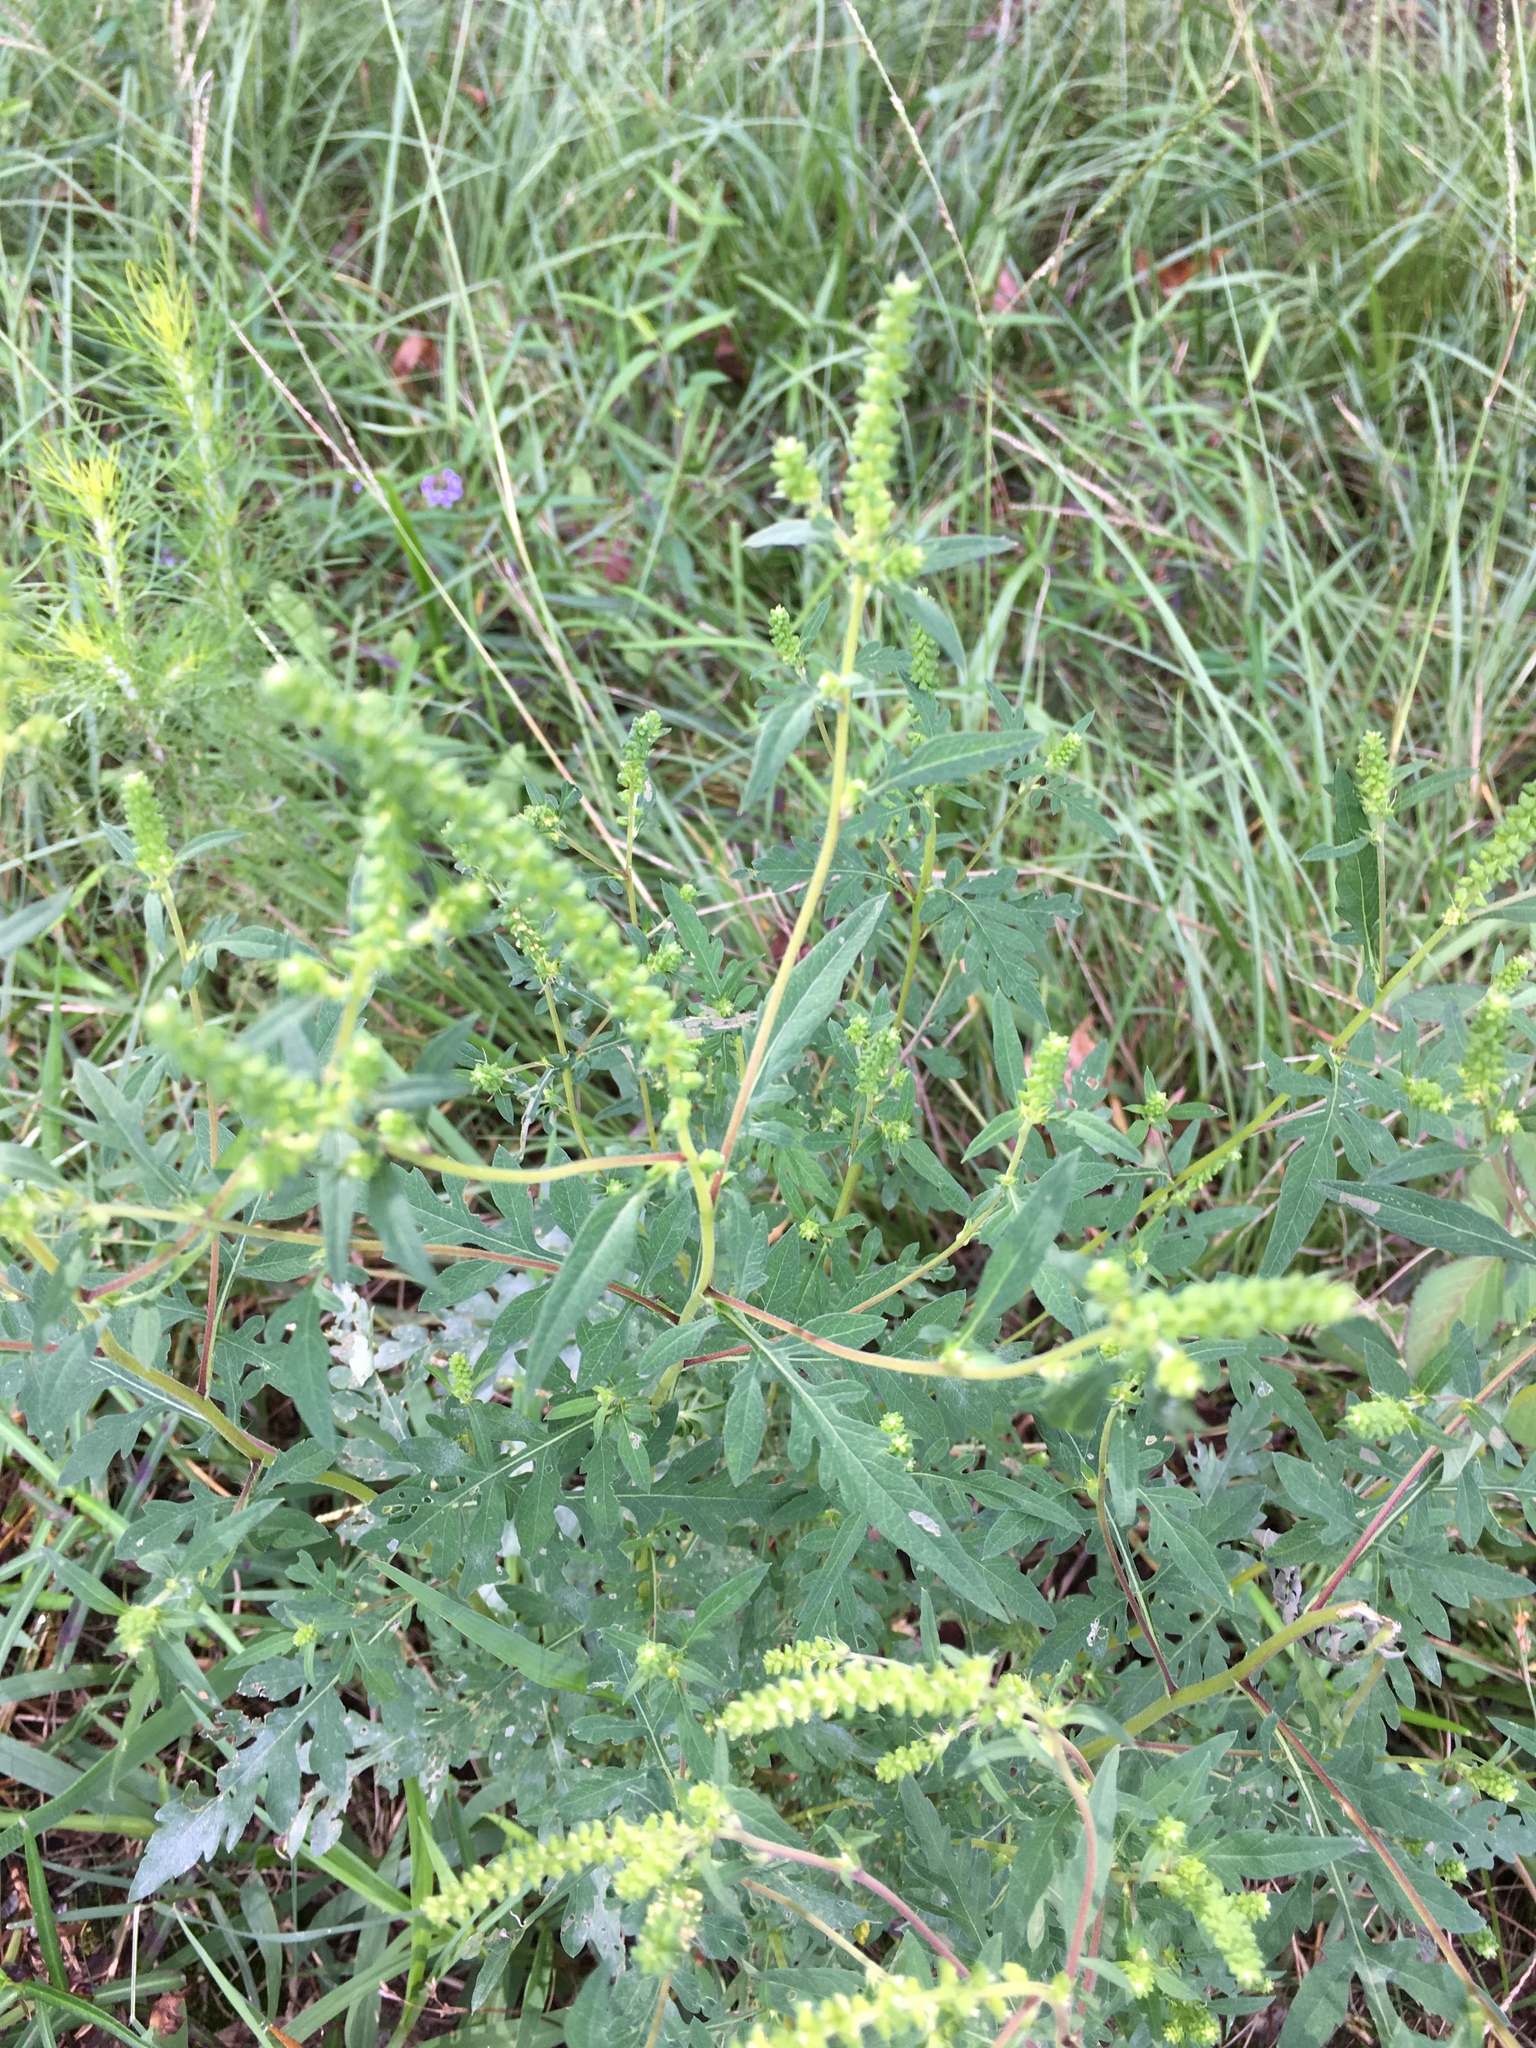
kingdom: Plantae
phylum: Tracheophyta
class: Magnoliopsida
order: Asterales
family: Asteraceae
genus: Ambrosia
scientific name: Ambrosia artemisiifolia
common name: Annual ragweed
